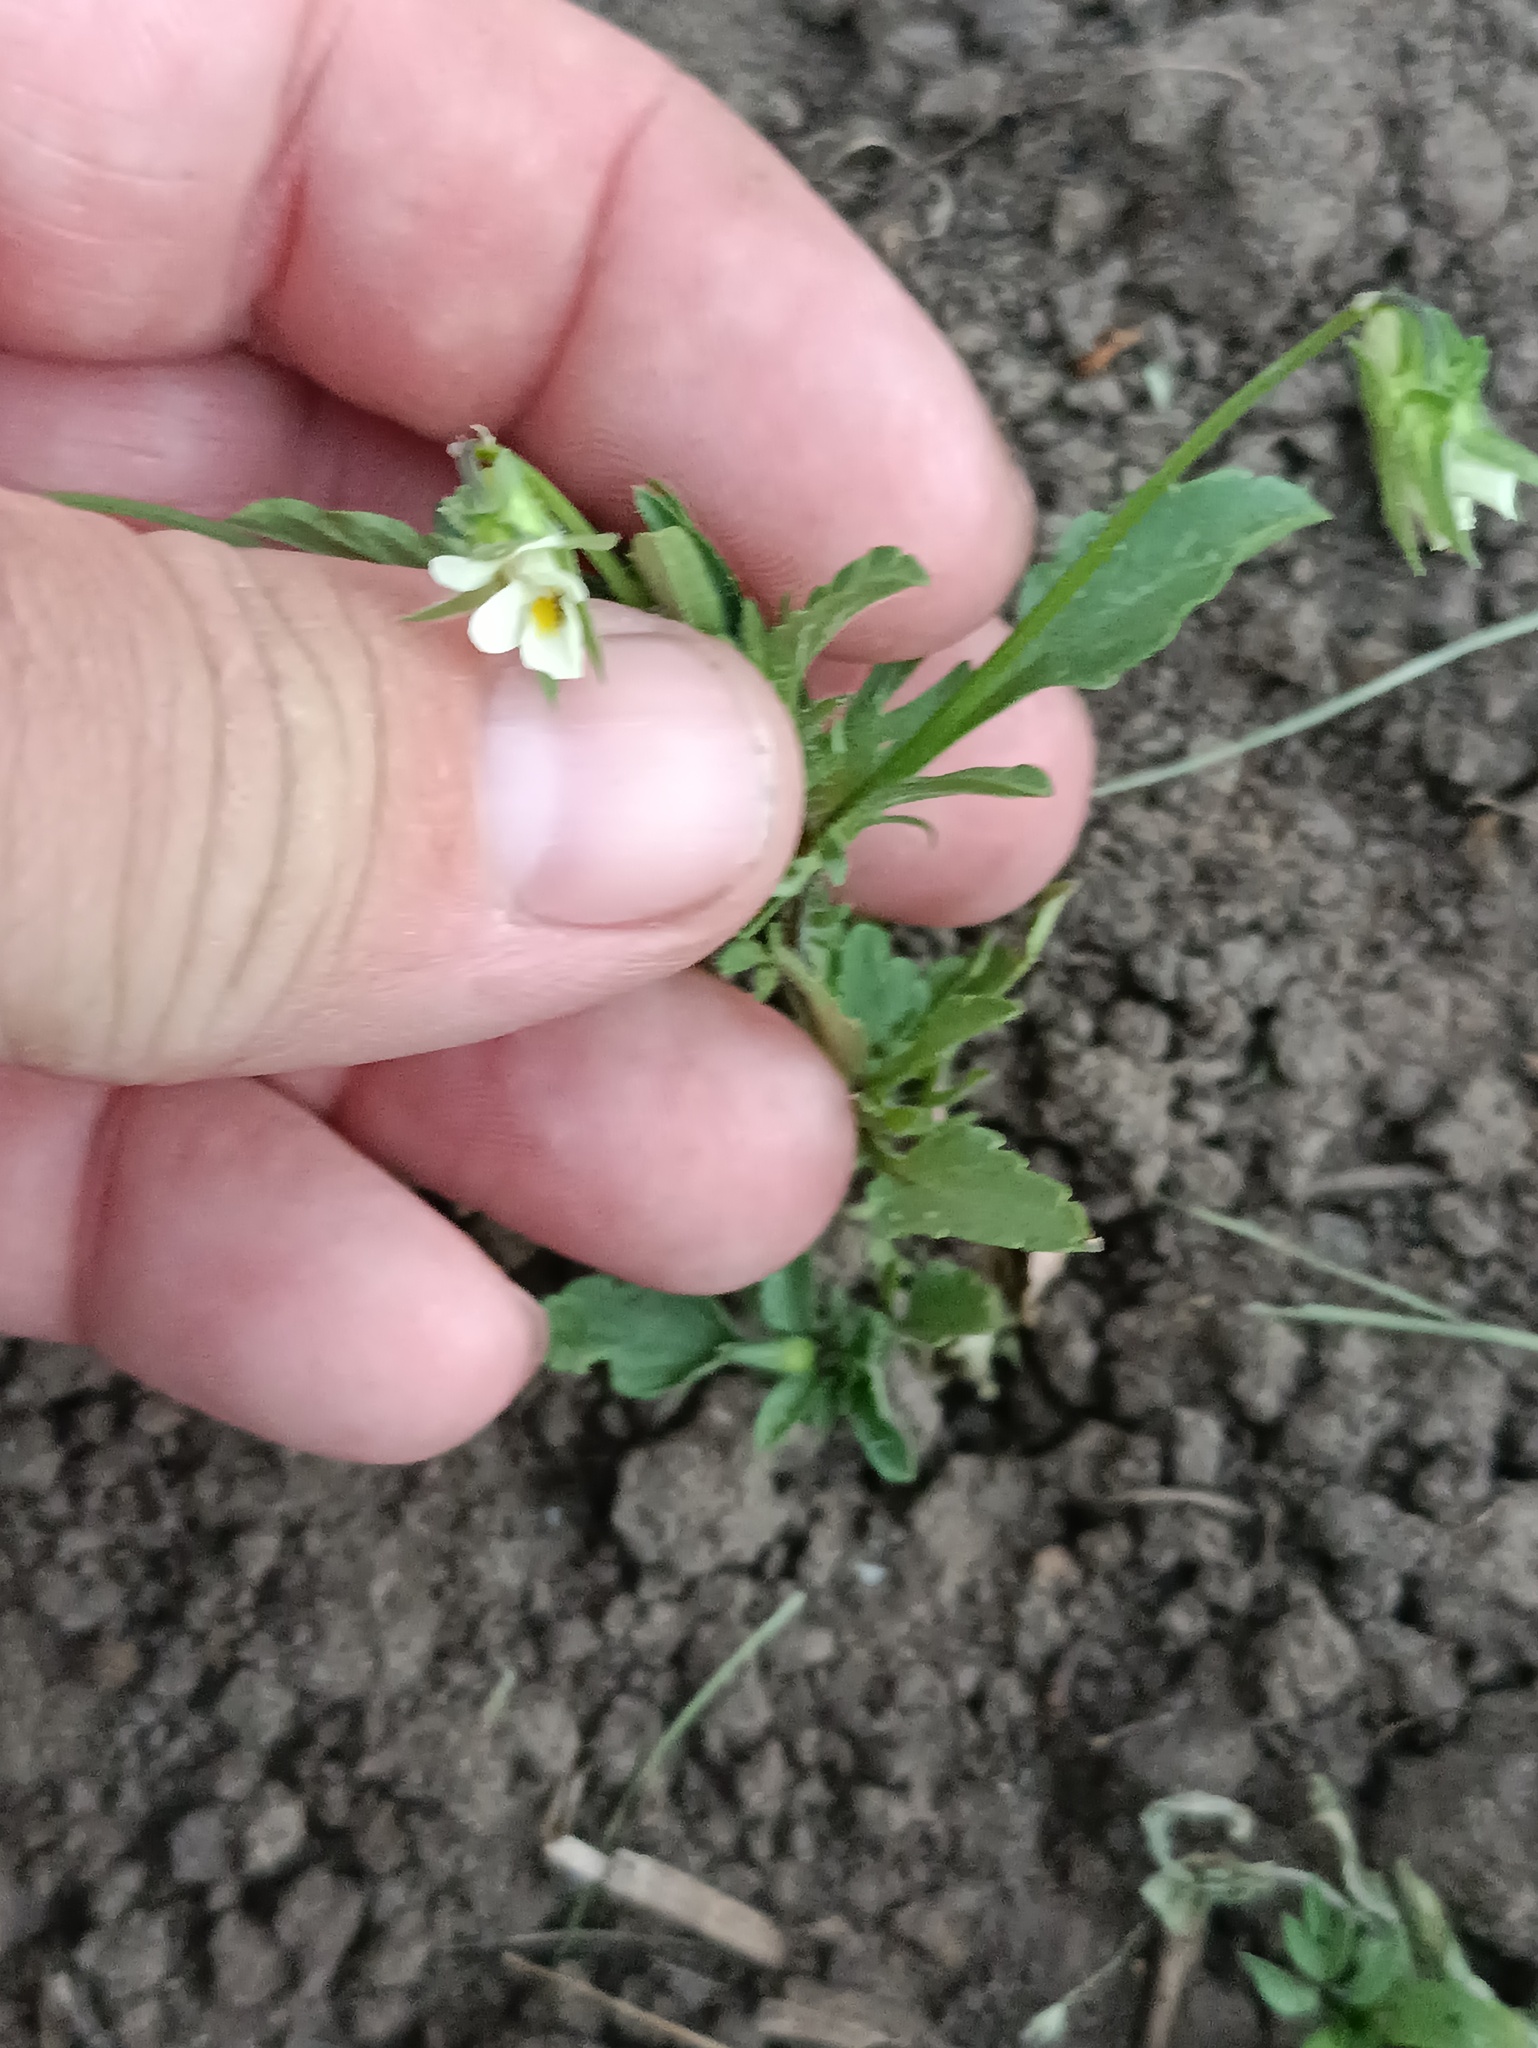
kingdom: Plantae
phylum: Tracheophyta
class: Magnoliopsida
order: Malpighiales
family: Violaceae
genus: Viola
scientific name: Viola arvensis
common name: Field pansy
